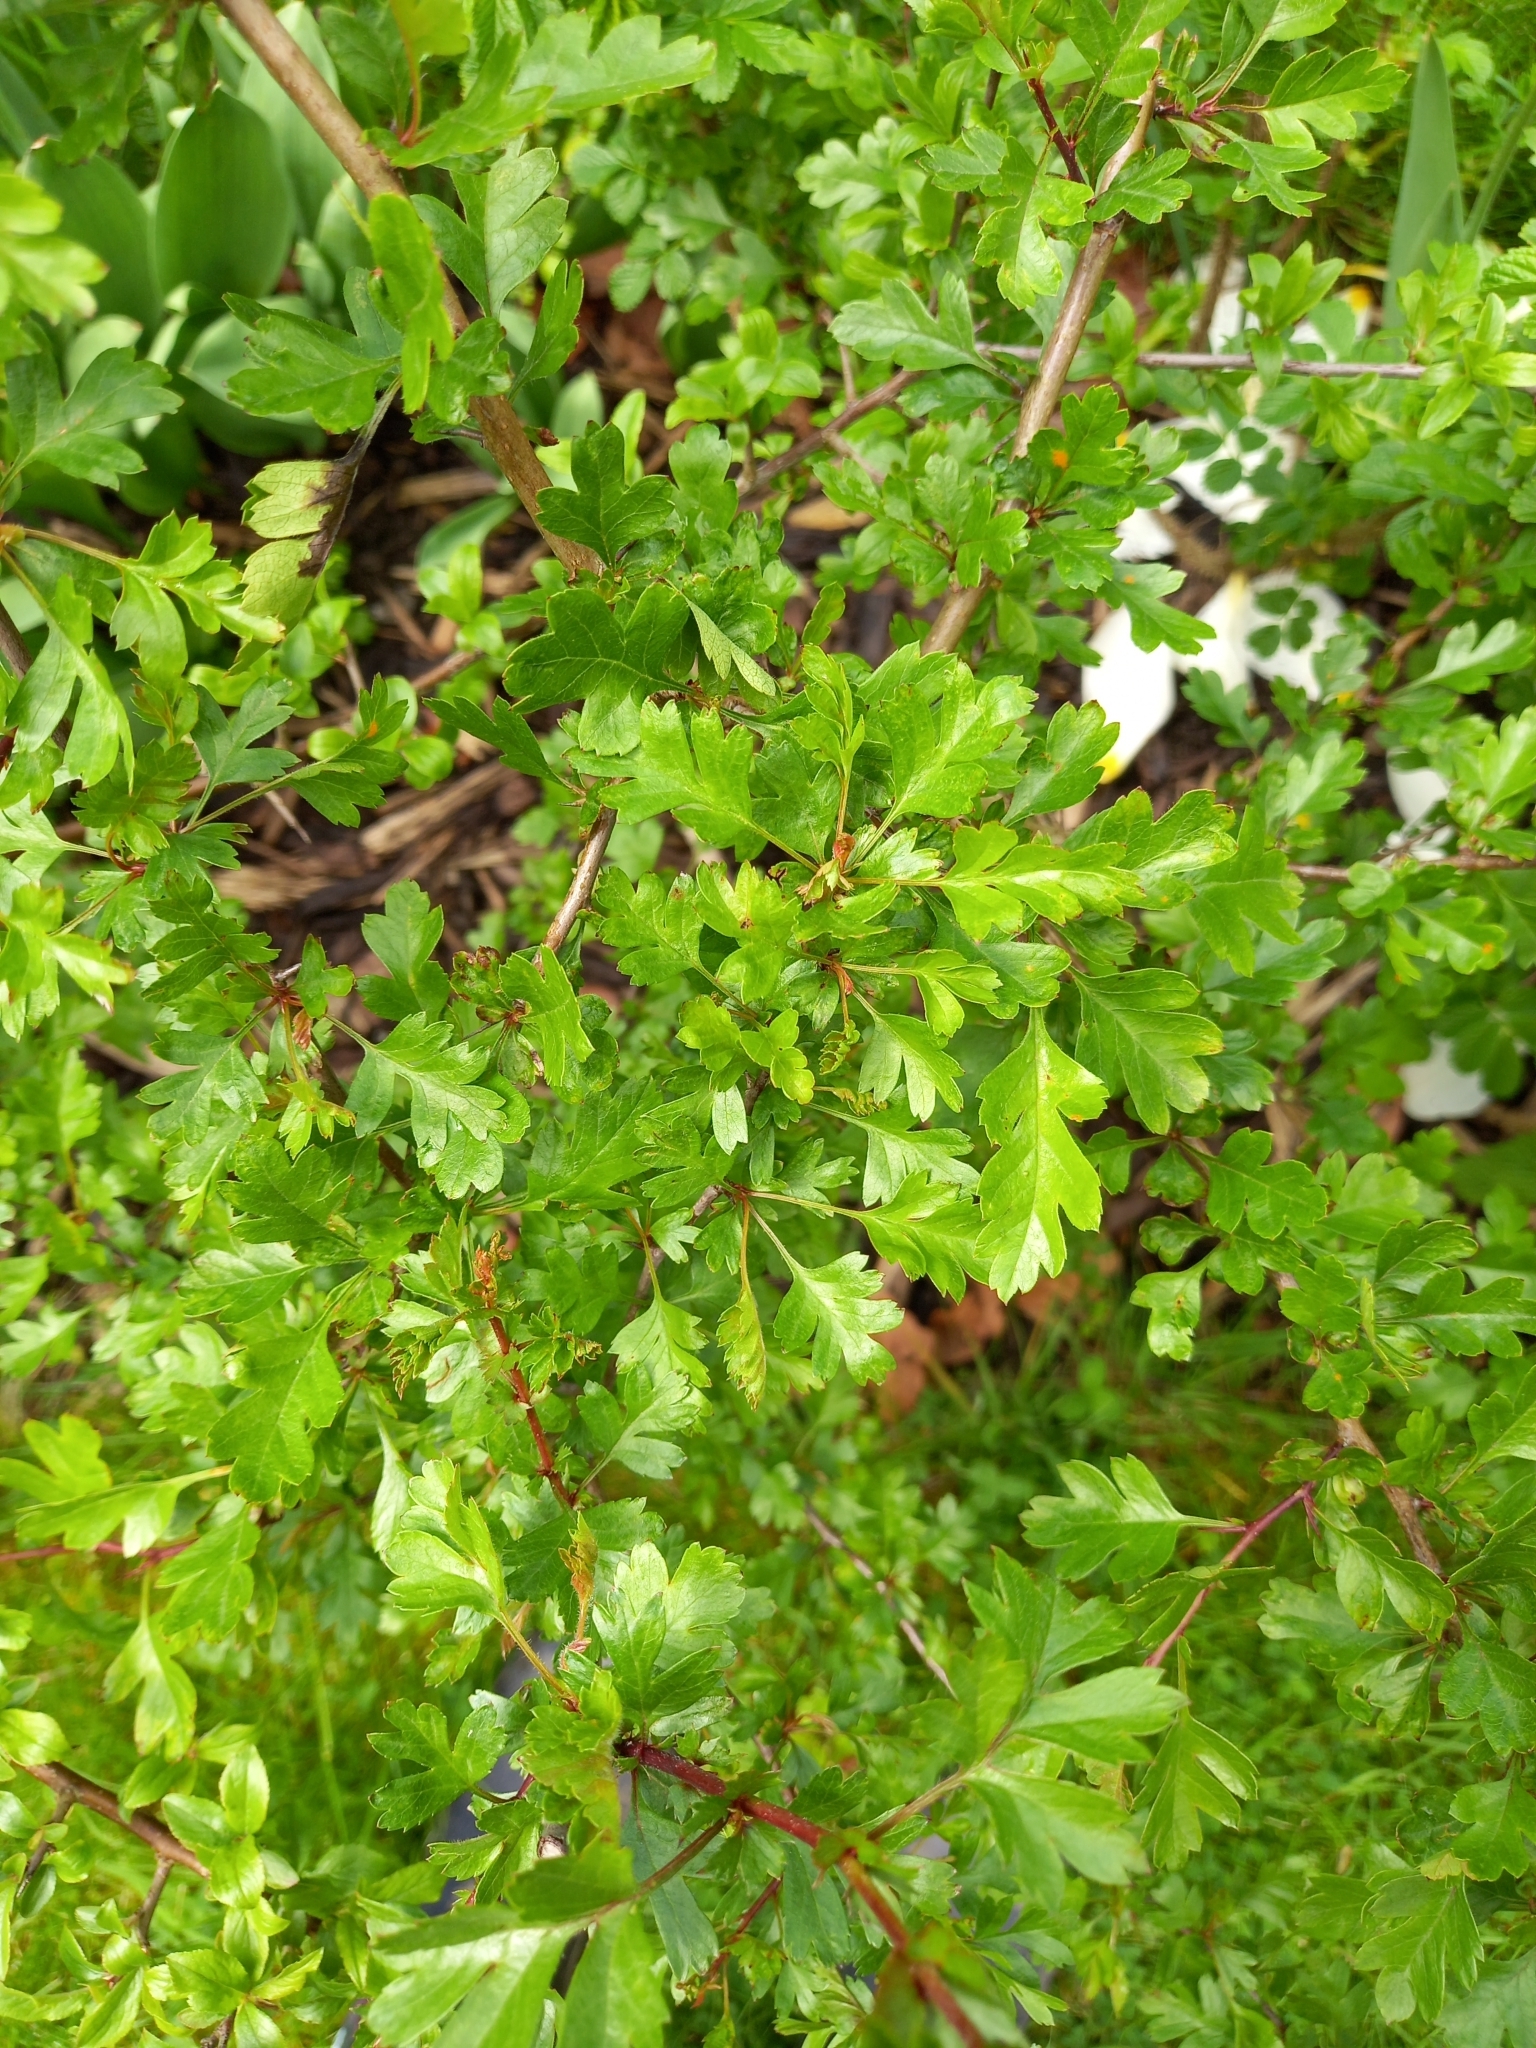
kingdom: Plantae
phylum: Tracheophyta
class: Magnoliopsida
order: Rosales
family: Rosaceae
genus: Crataegus
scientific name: Crataegus monogyna
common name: Hawthorn
